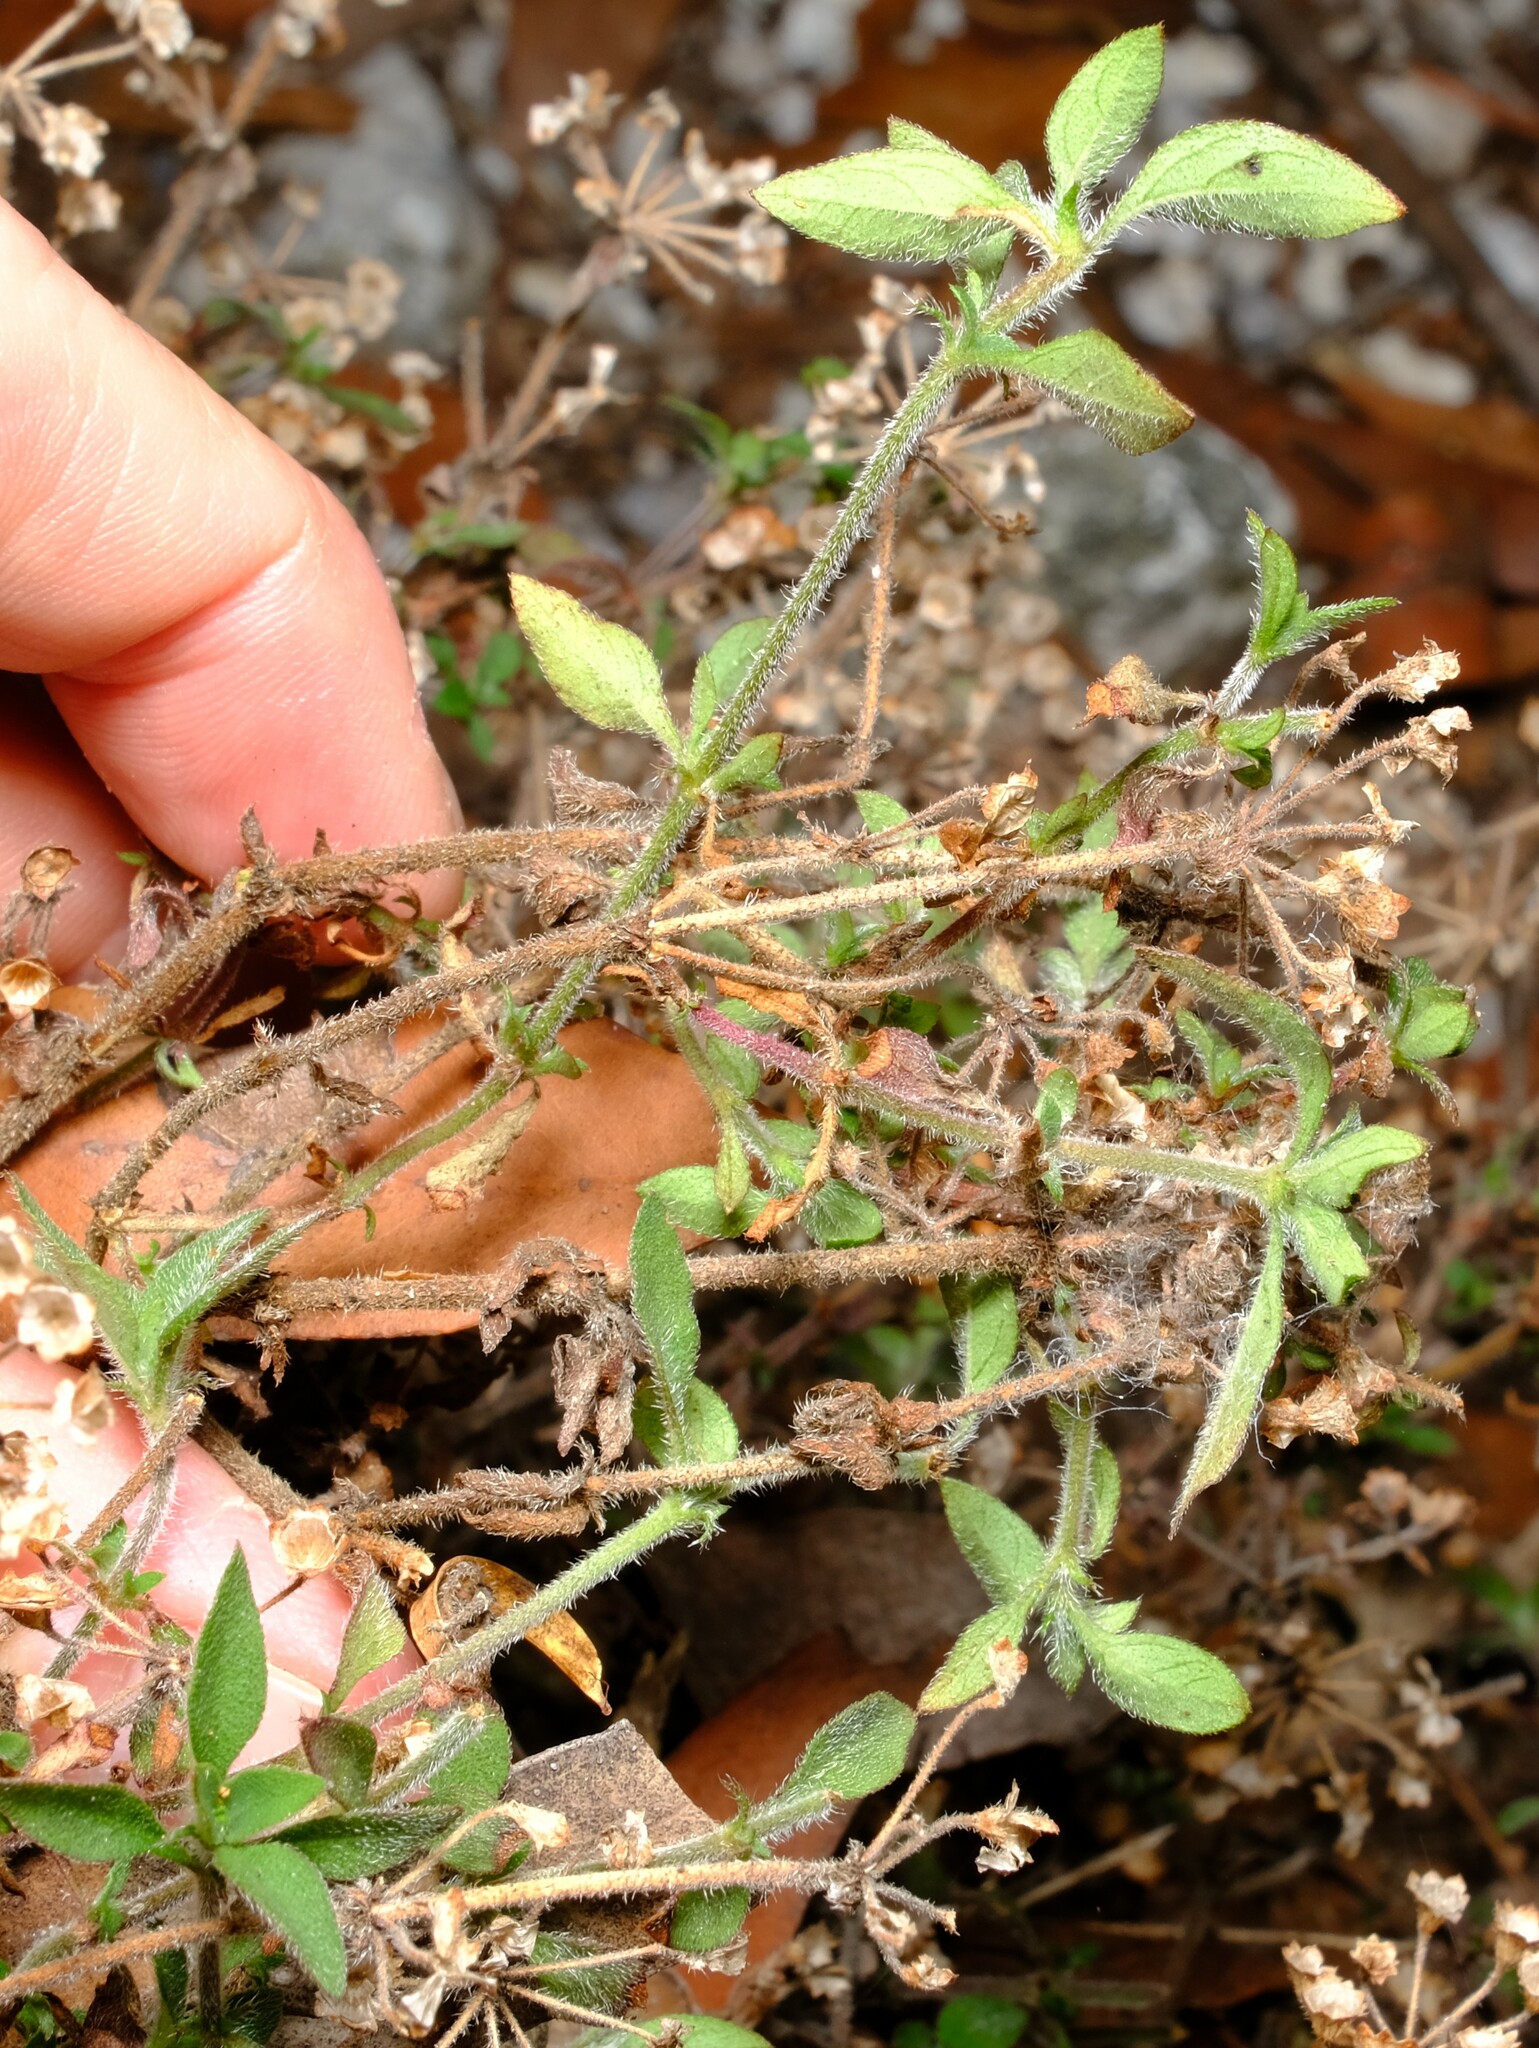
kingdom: Plantae
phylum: Tracheophyta
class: Magnoliopsida
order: Gentianales
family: Rubiaceae
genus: Pomax
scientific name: Pomax umbellata
